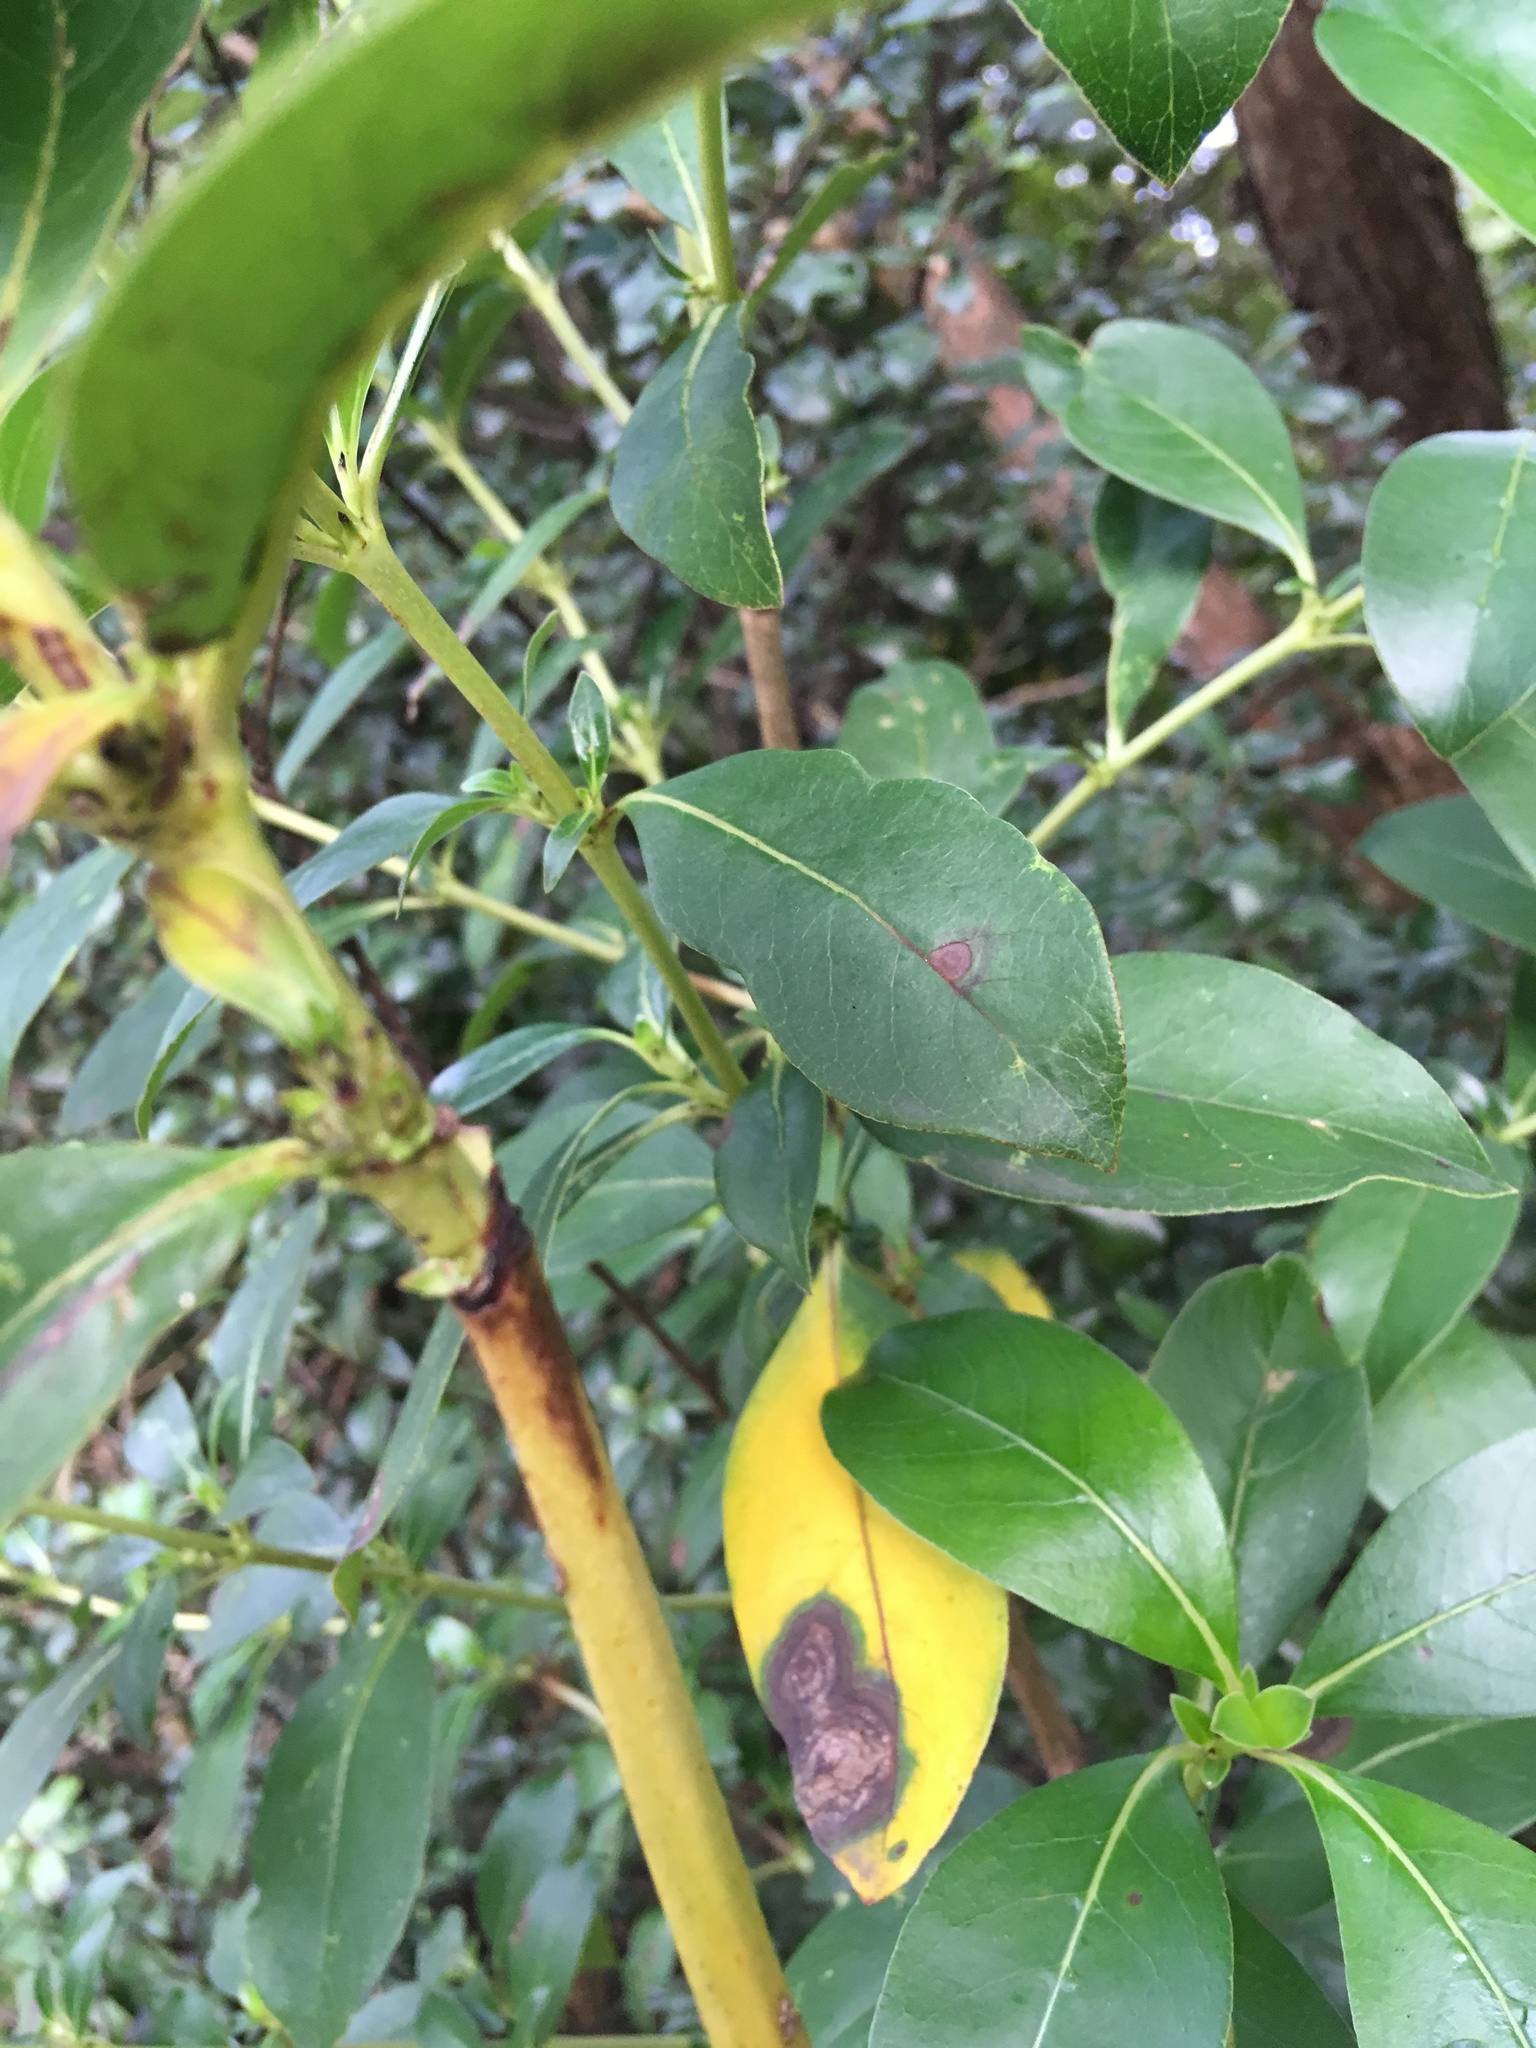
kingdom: Plantae
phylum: Tracheophyta
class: Magnoliopsida
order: Gentianales
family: Rubiaceae
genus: Coprosma
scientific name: Coprosma robusta
